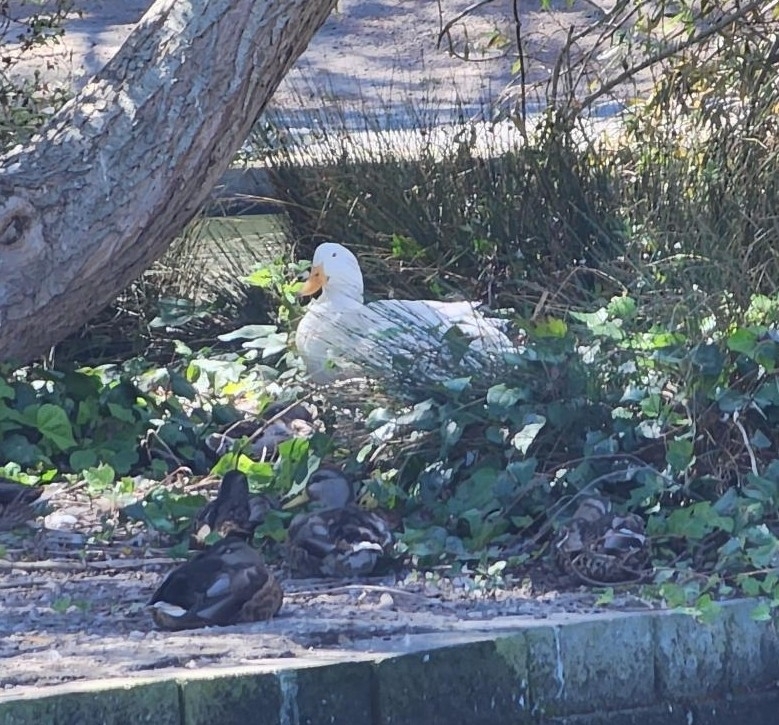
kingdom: Animalia
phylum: Chordata
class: Aves
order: Anseriformes
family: Anatidae
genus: Anas
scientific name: Anas platyrhynchos
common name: Mallard
